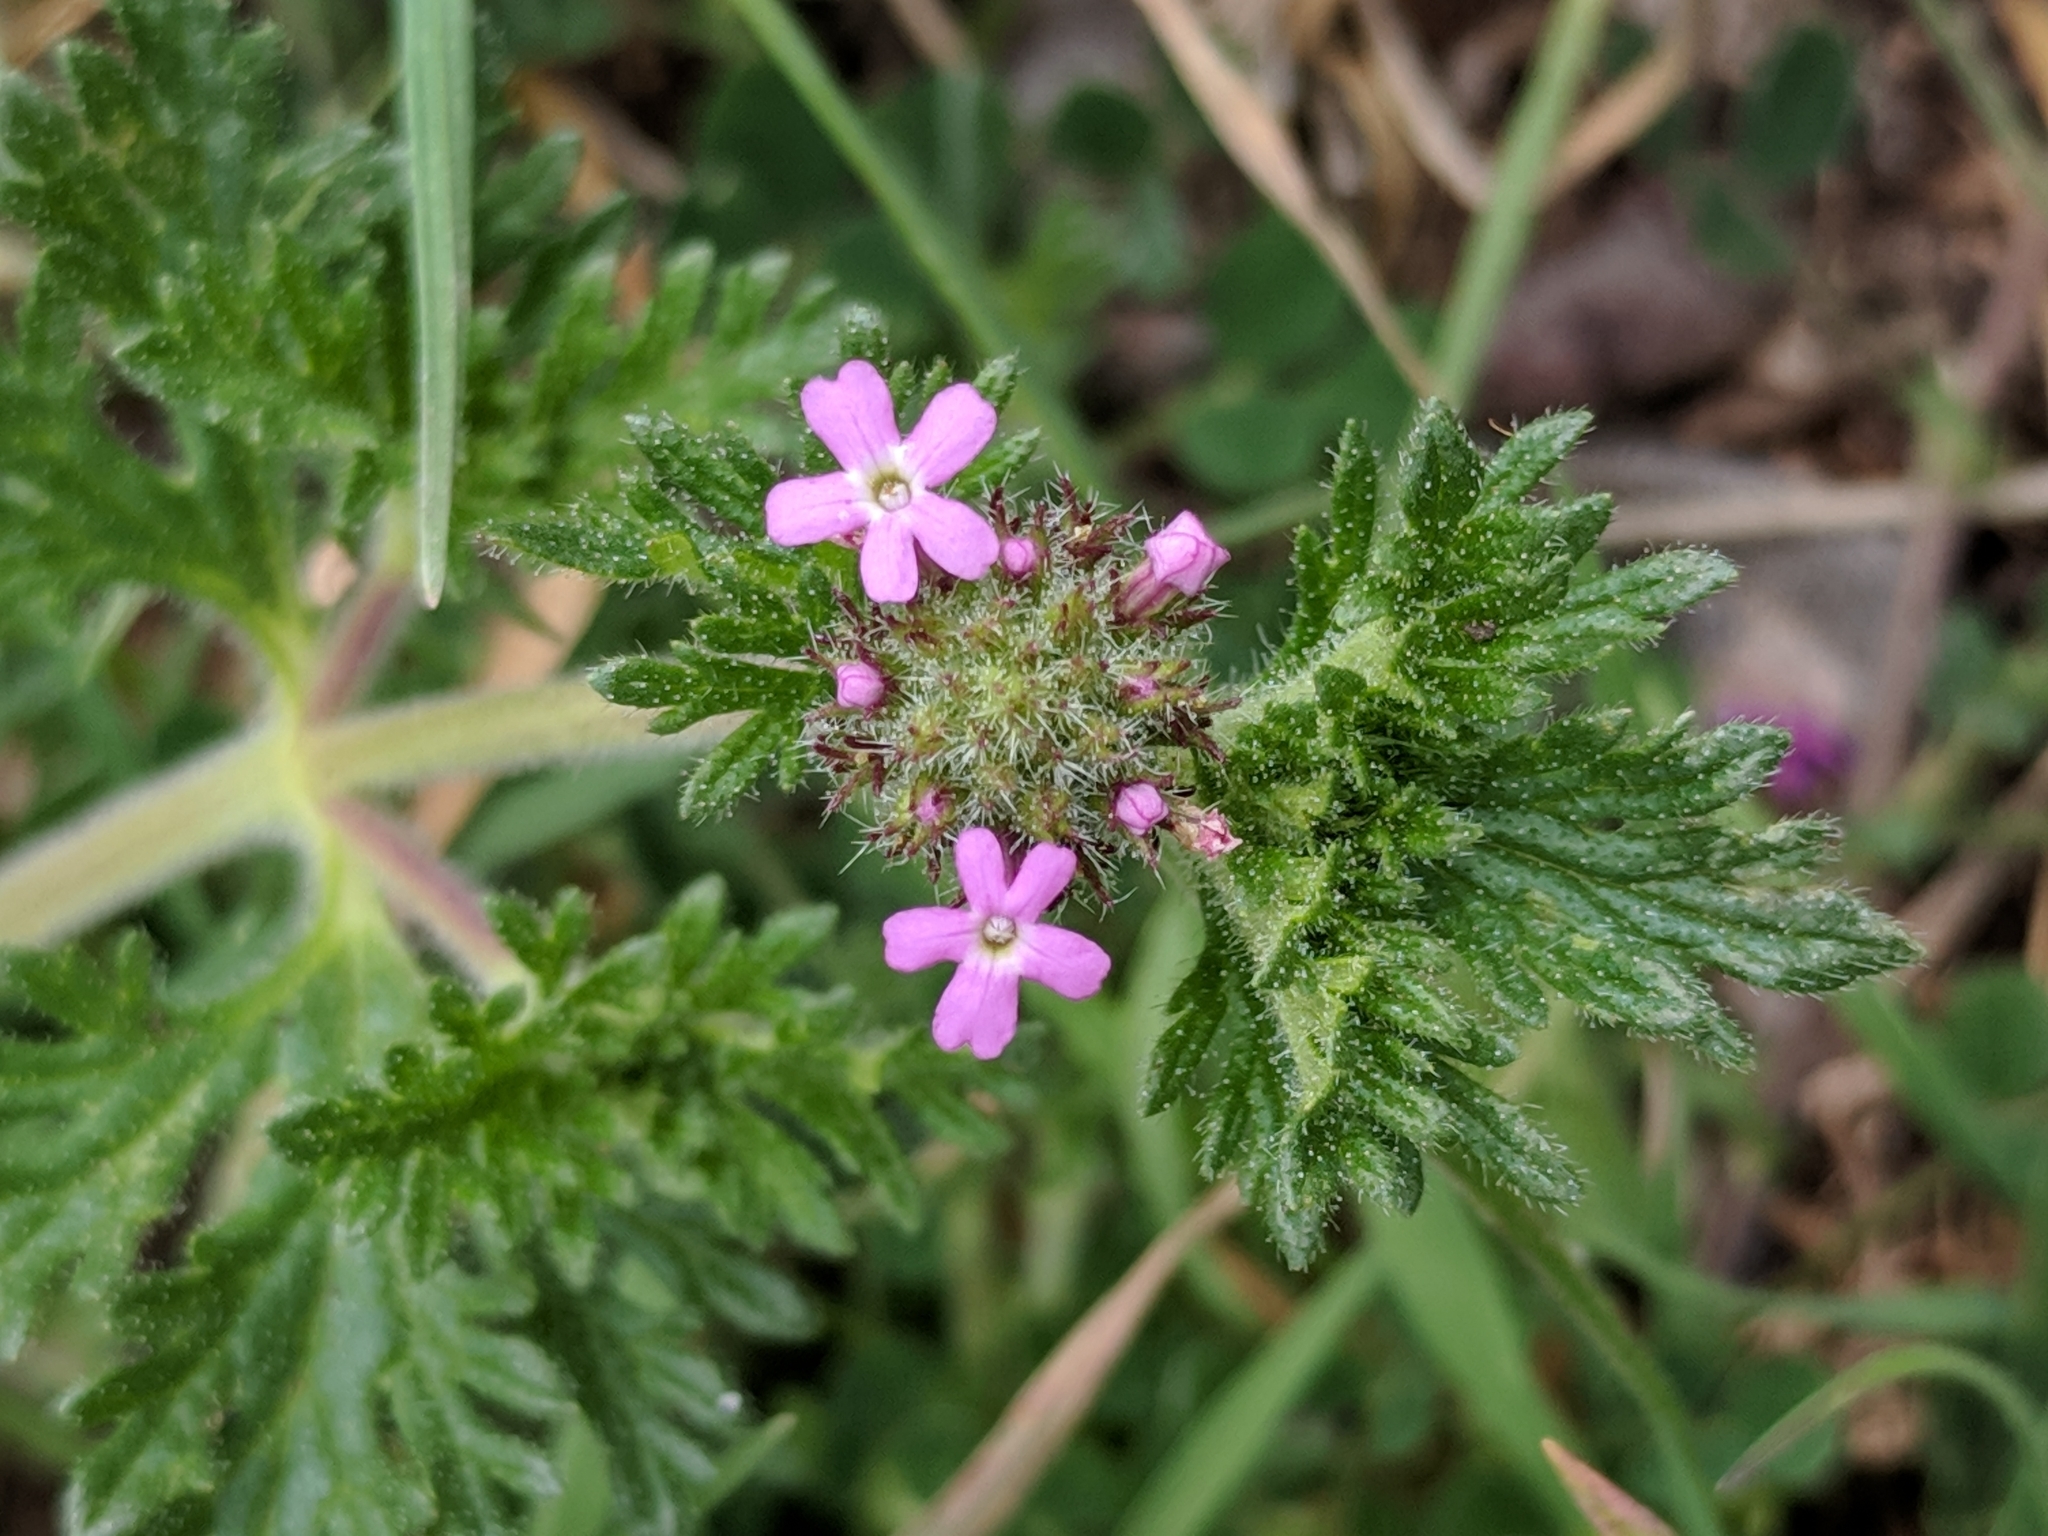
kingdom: Plantae
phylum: Tracheophyta
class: Magnoliopsida
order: Lamiales
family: Verbenaceae
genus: Verbena
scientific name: Verbena pumila
